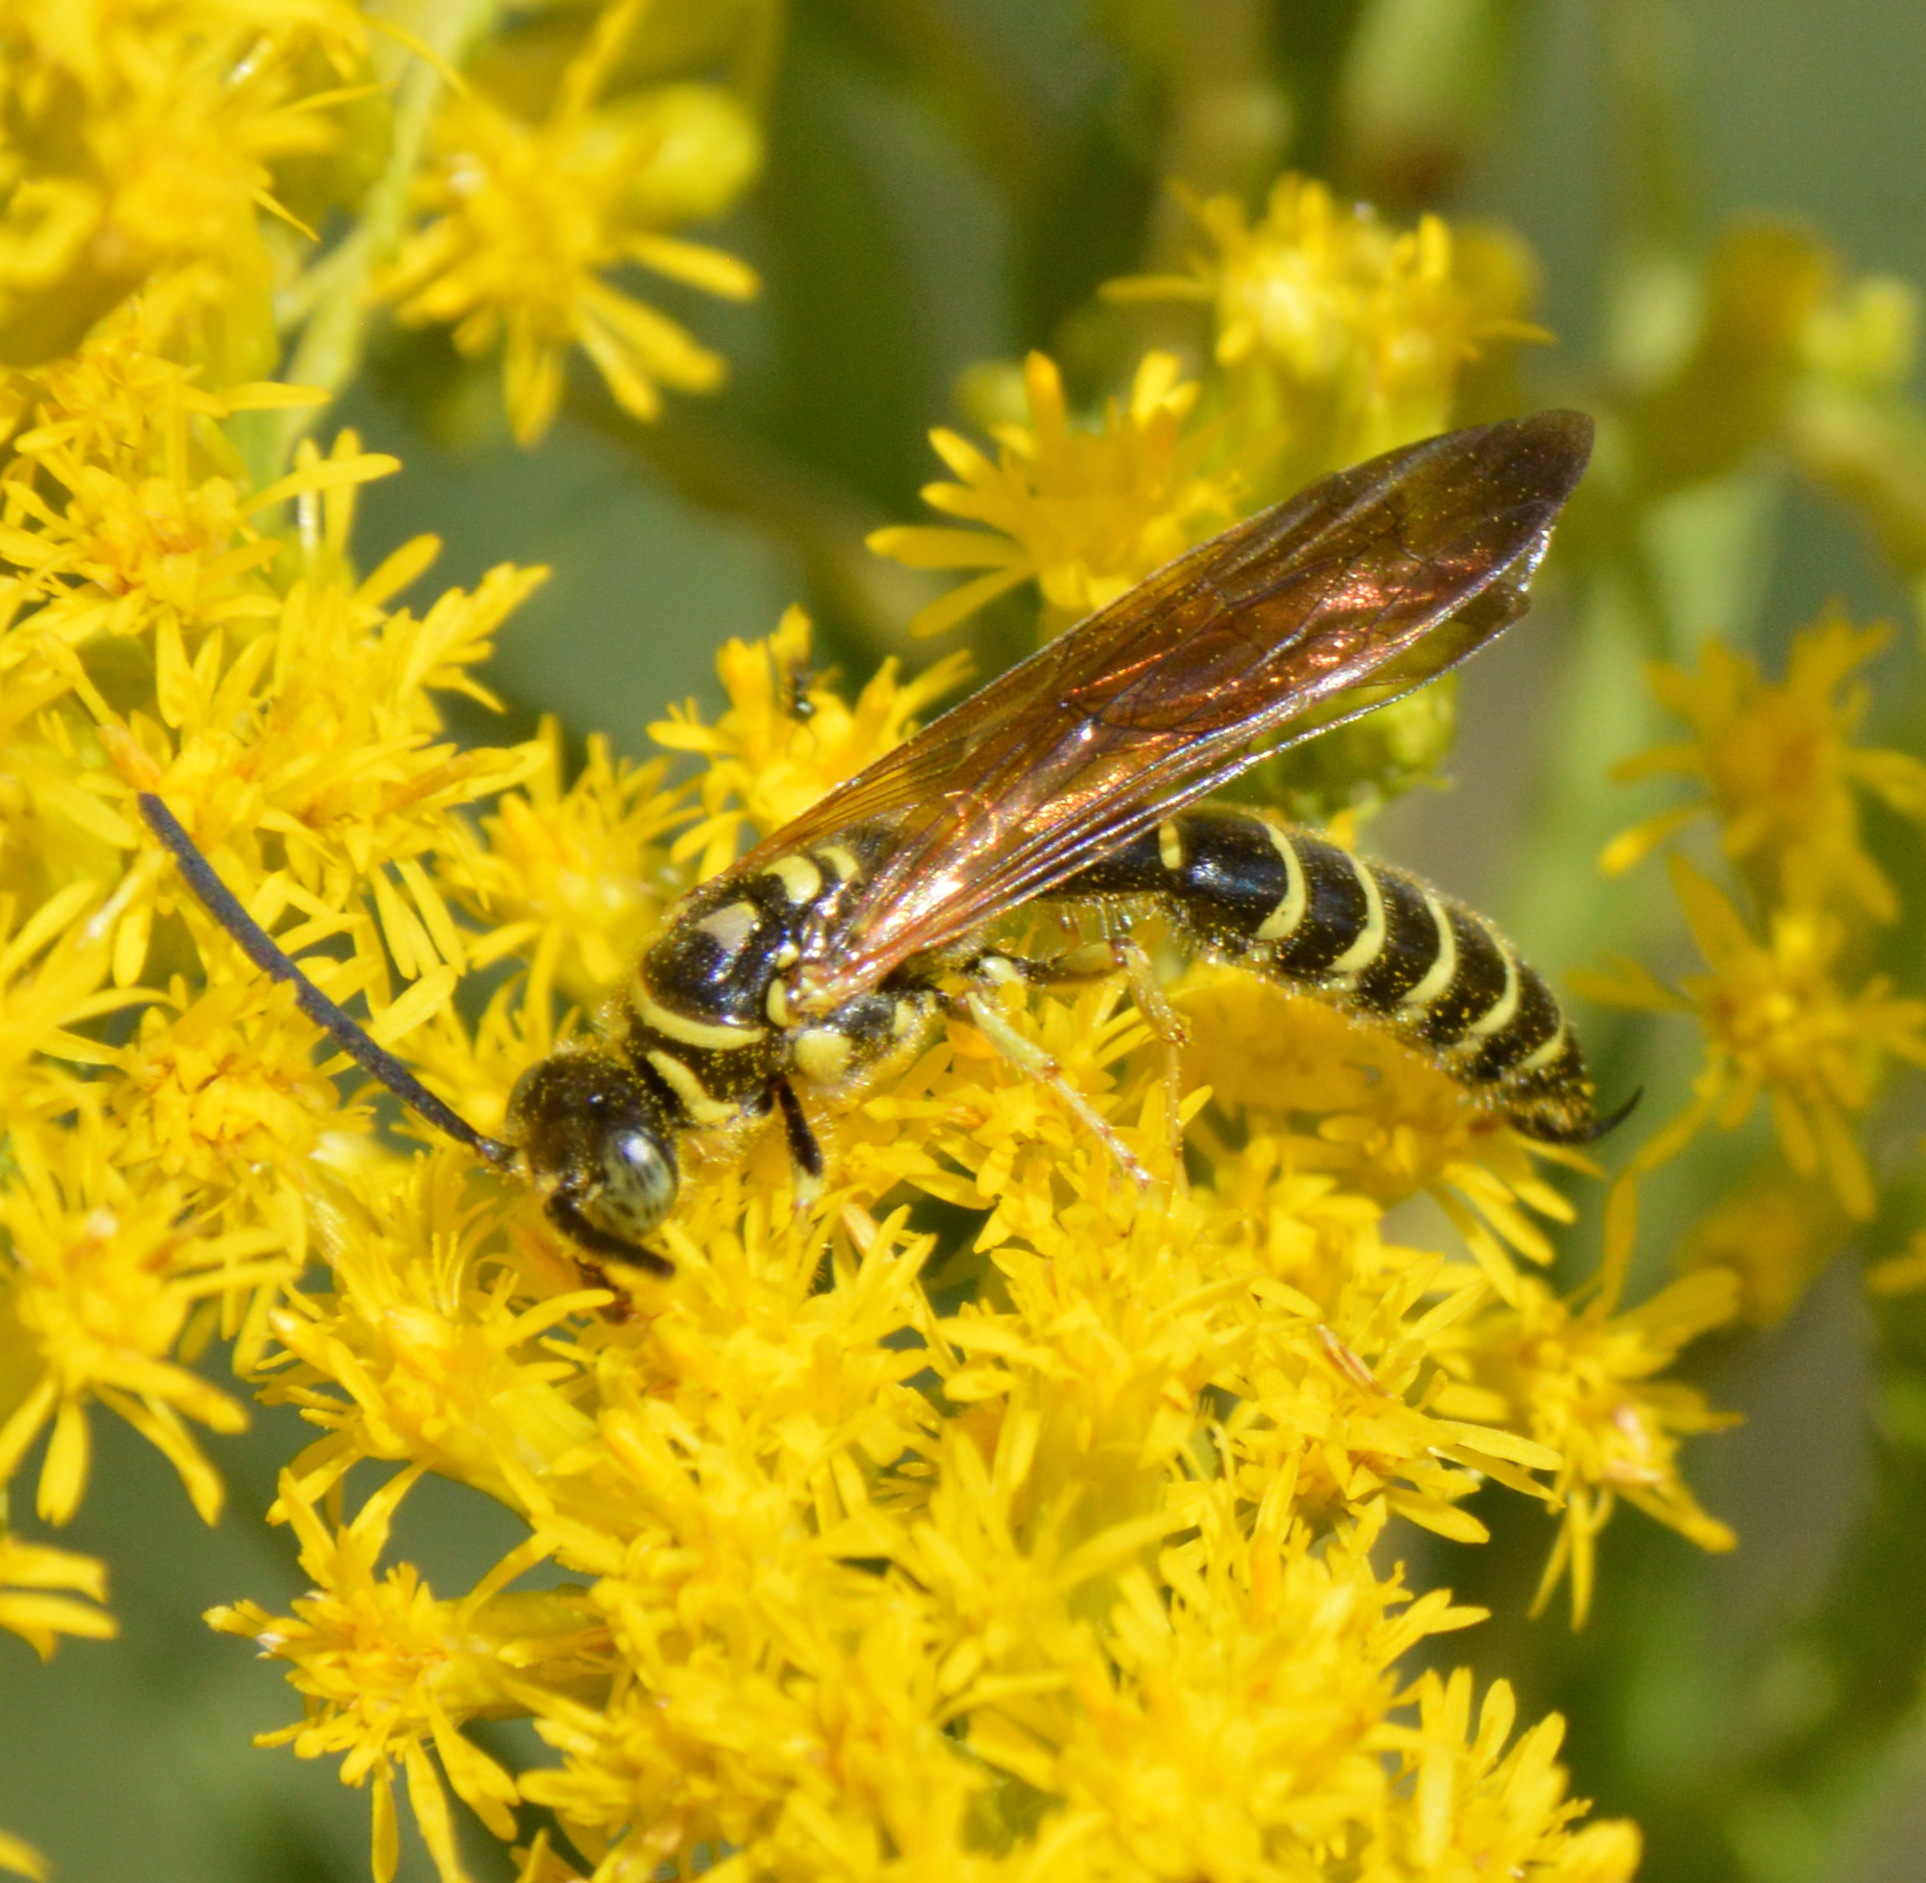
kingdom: Animalia
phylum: Arthropoda
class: Insecta
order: Hymenoptera
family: Tiphiidae
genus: Myzinum
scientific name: Myzinum
